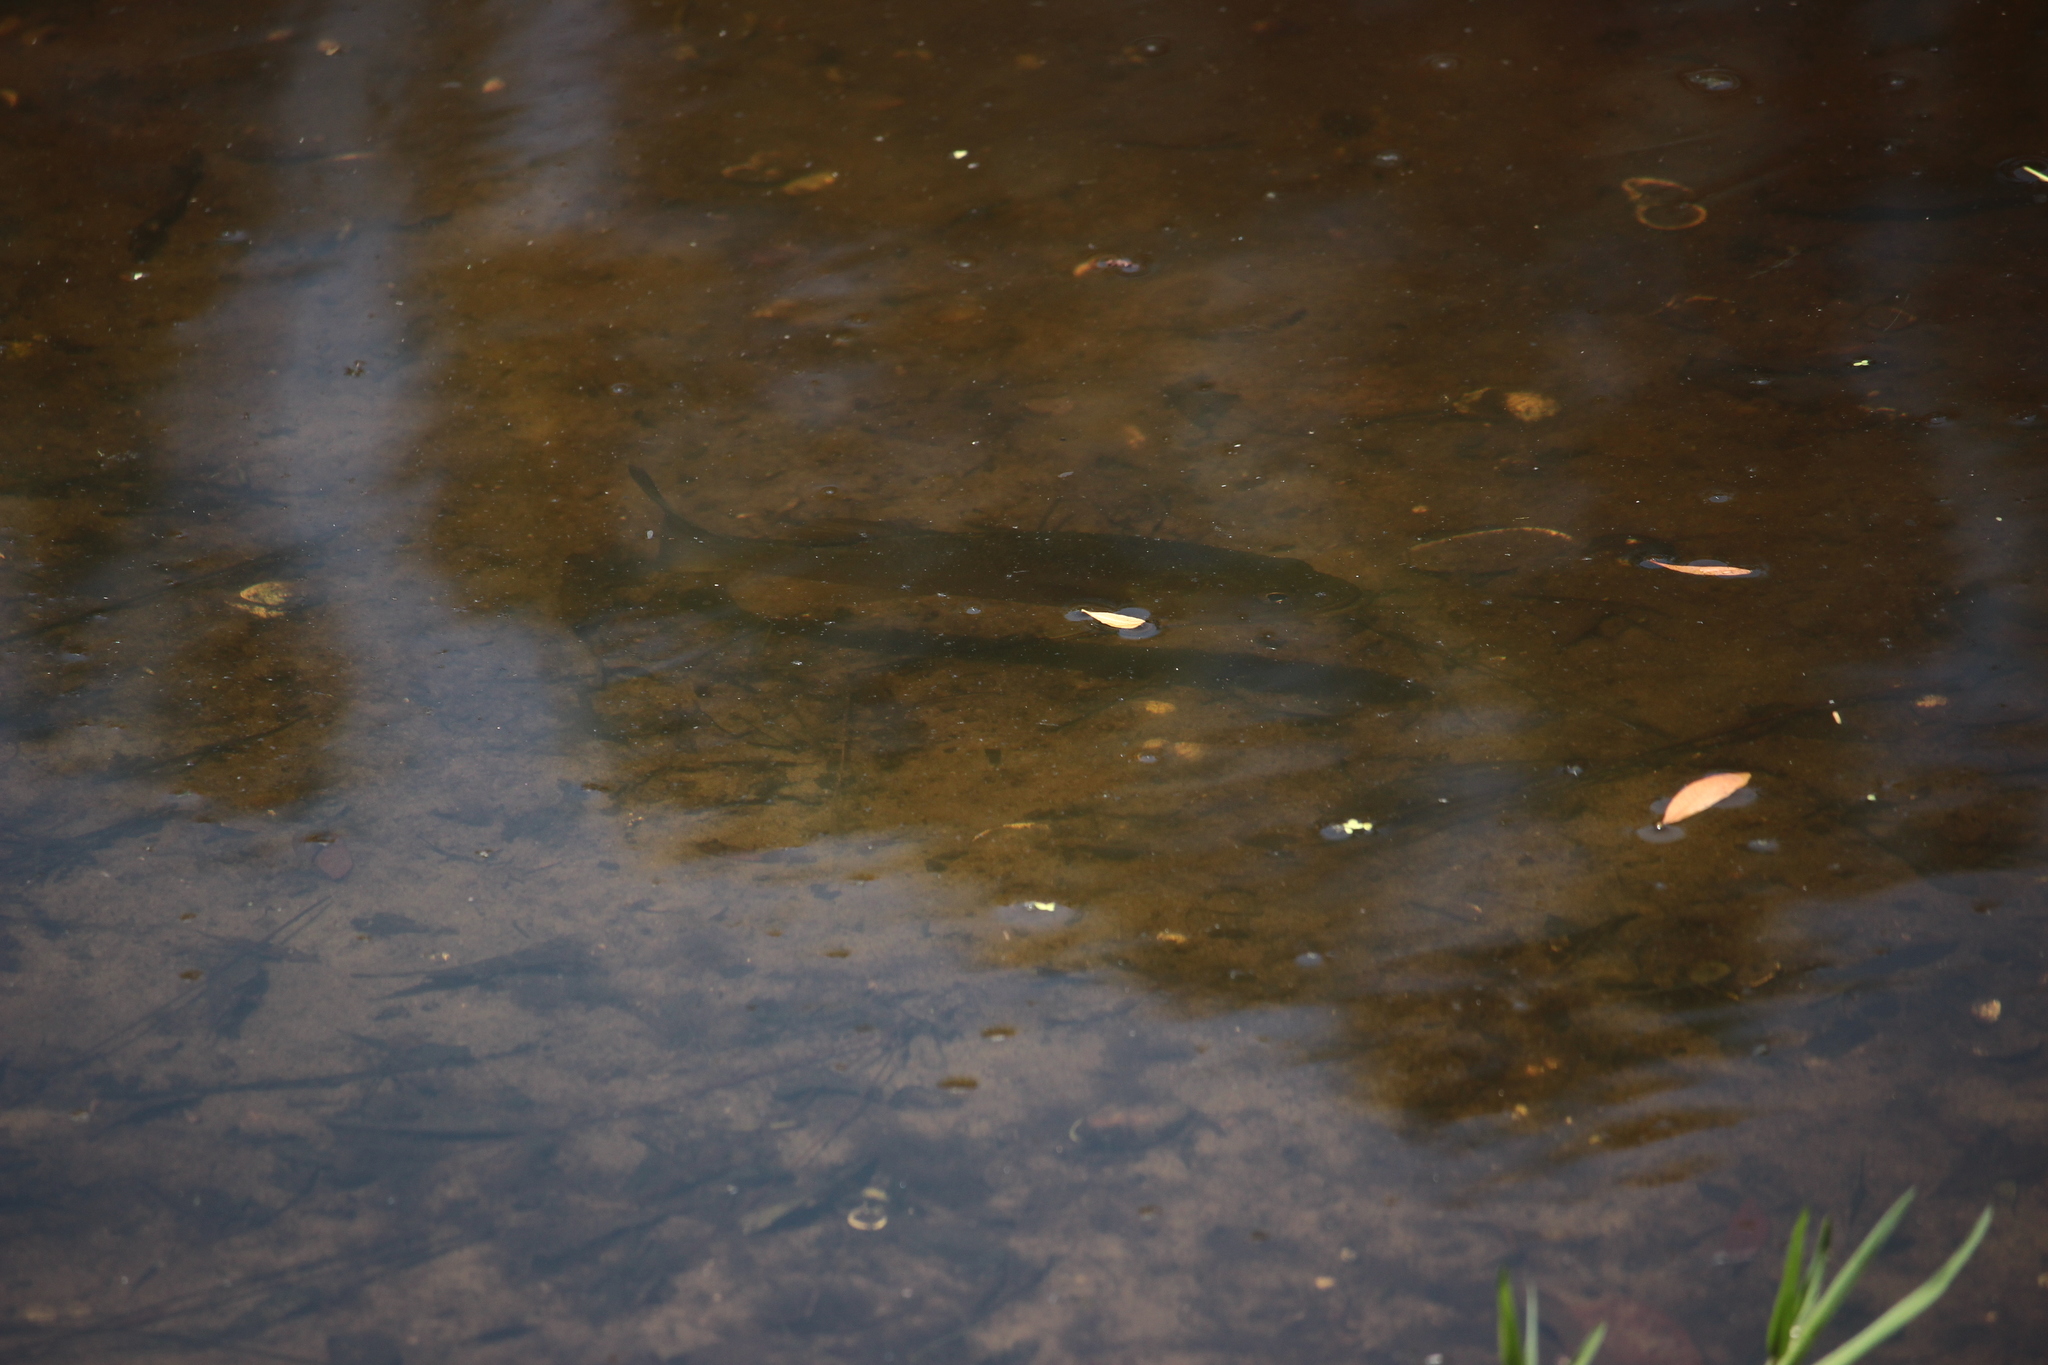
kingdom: Animalia
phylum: Chordata
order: Perciformes
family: Centrarchidae
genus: Micropterus
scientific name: Micropterus salmoides
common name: Largemouth bass
